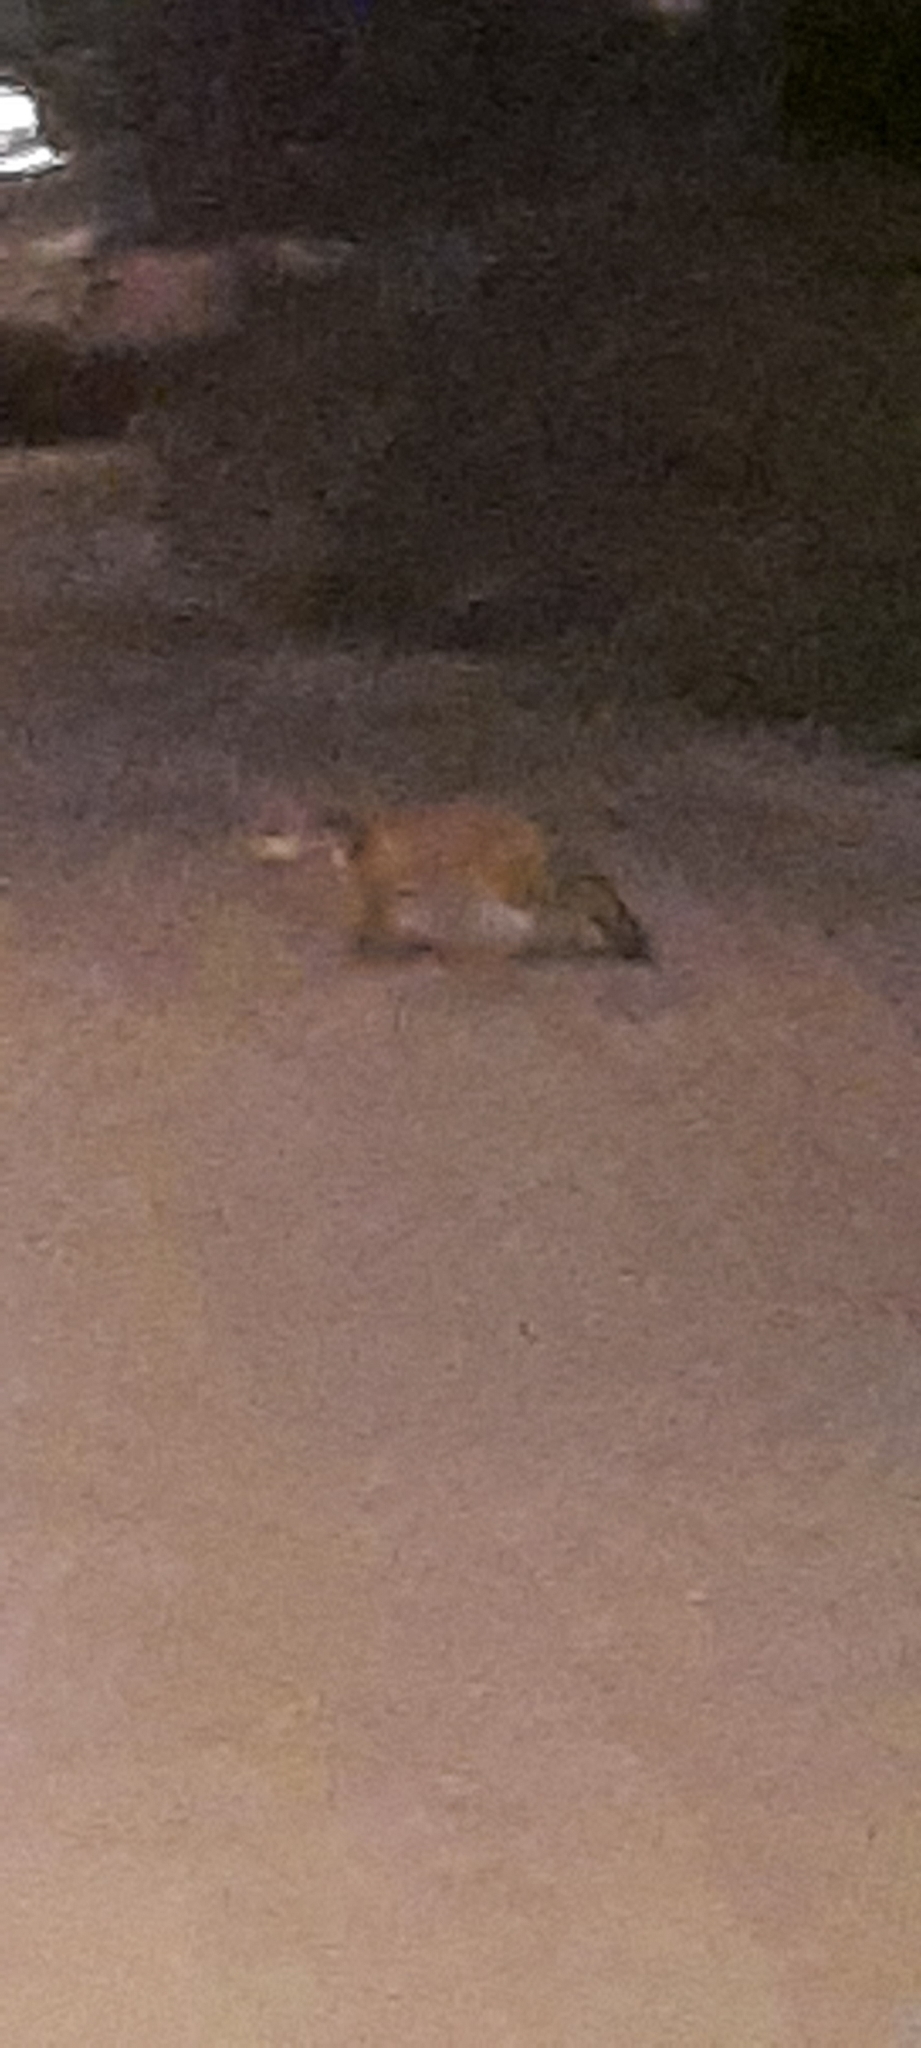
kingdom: Animalia
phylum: Chordata
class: Mammalia
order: Carnivora
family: Canidae
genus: Vulpes
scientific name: Vulpes vulpes
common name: Red fox
